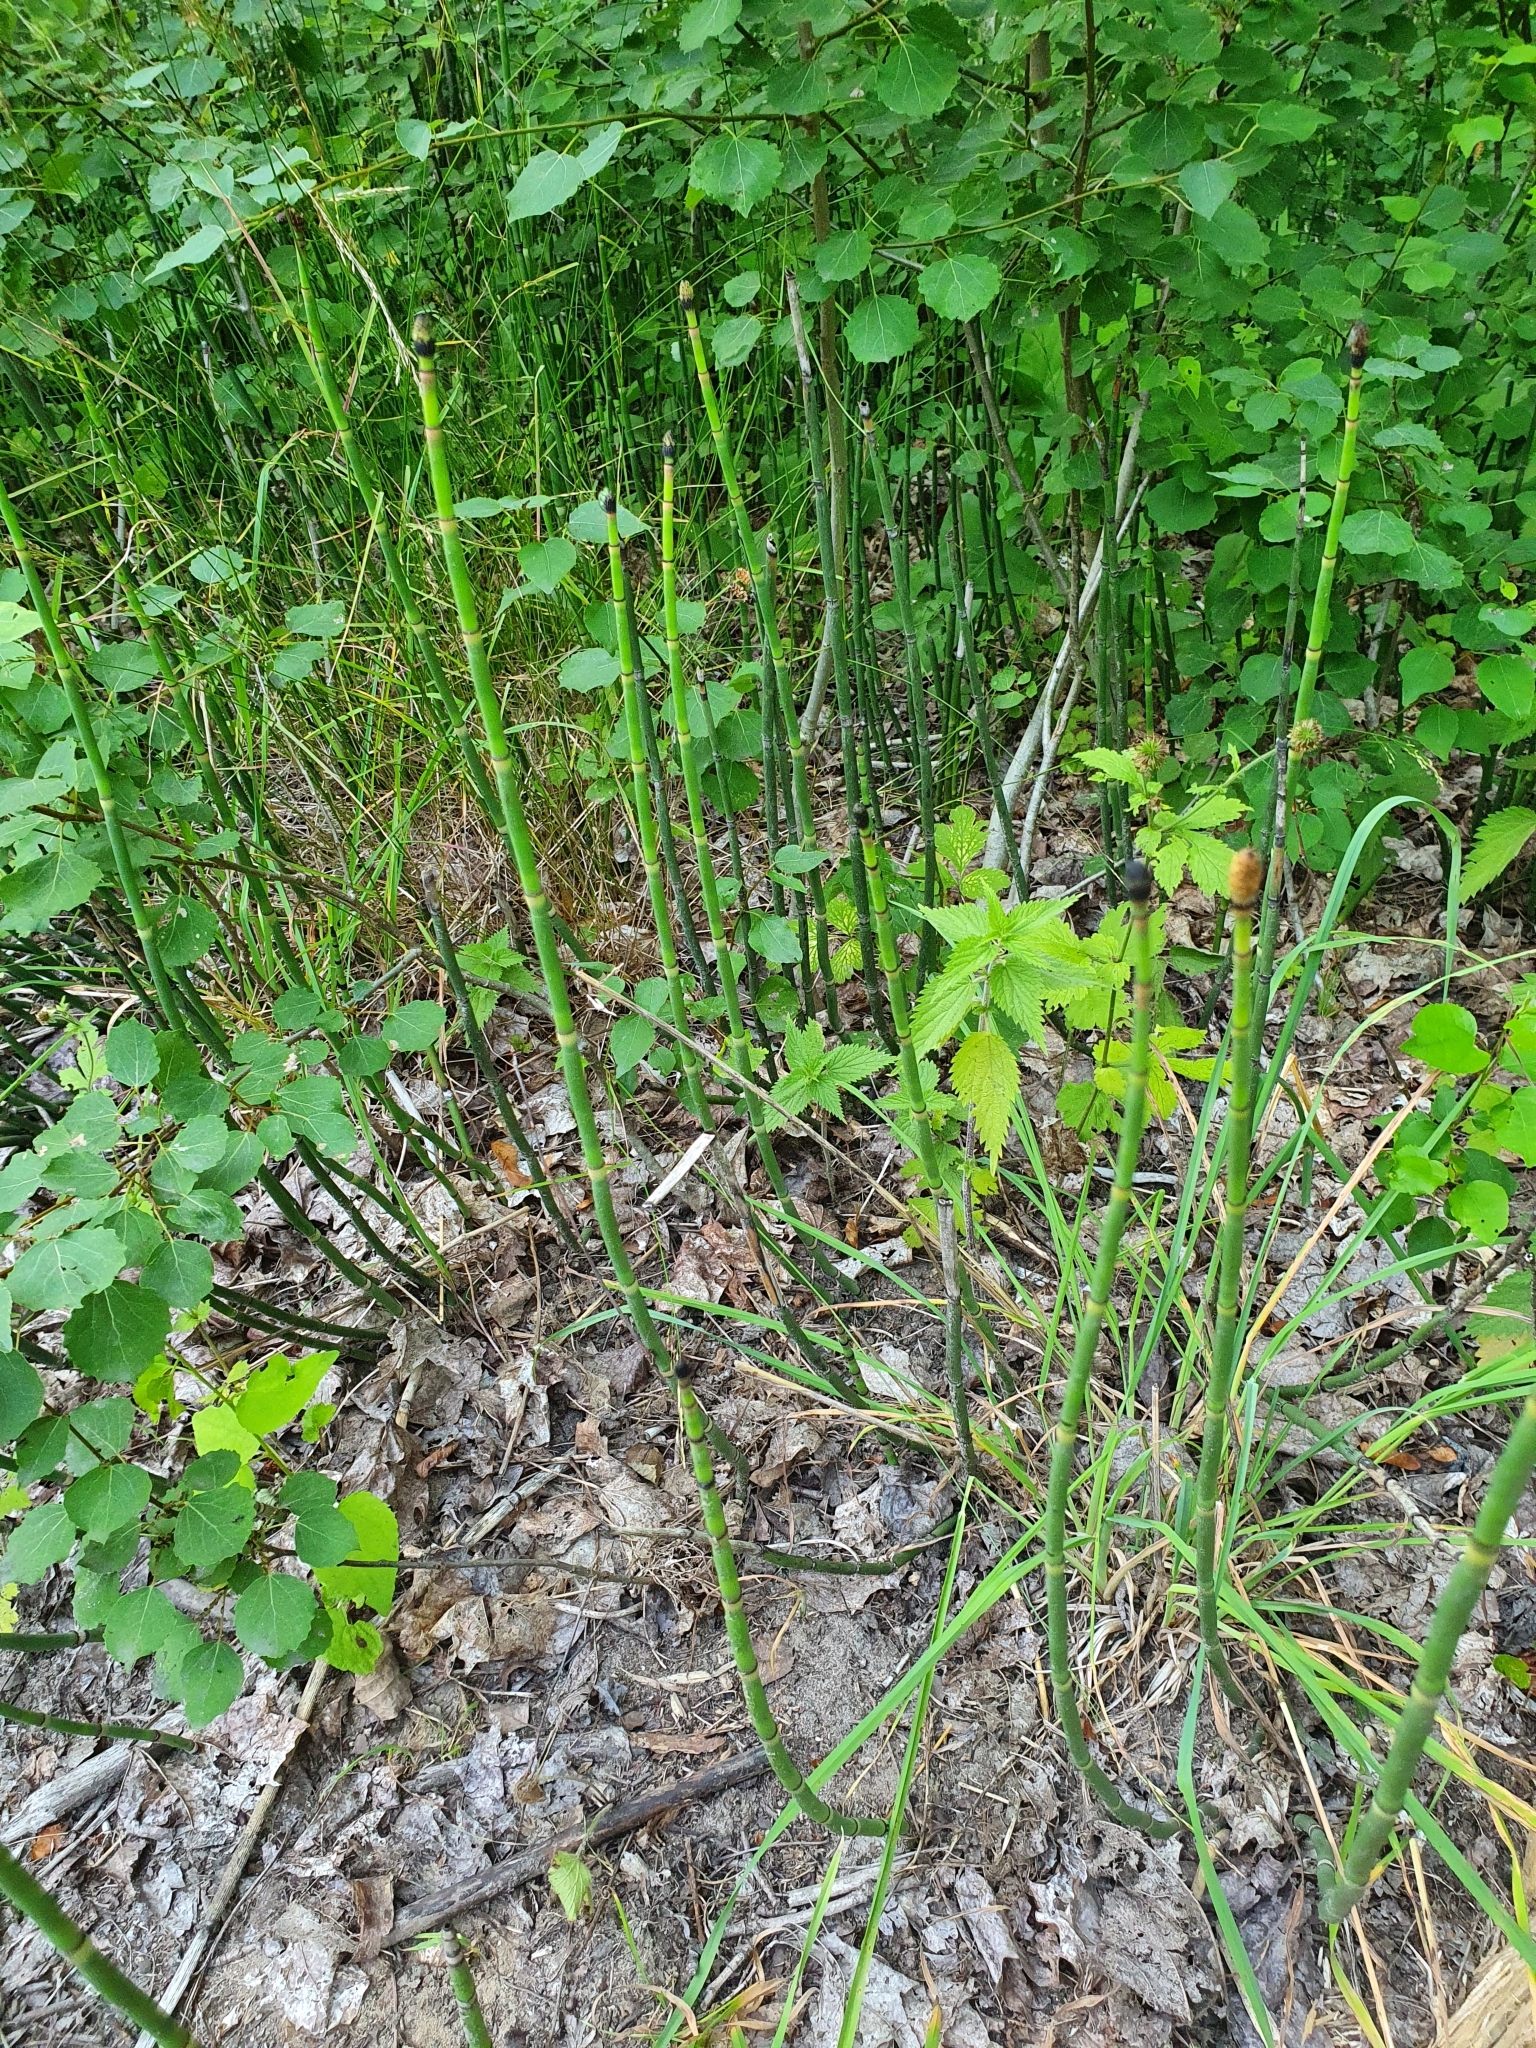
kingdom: Plantae
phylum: Tracheophyta
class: Polypodiopsida
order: Equisetales
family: Equisetaceae
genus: Equisetum
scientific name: Equisetum hyemale
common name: Rough horsetail
